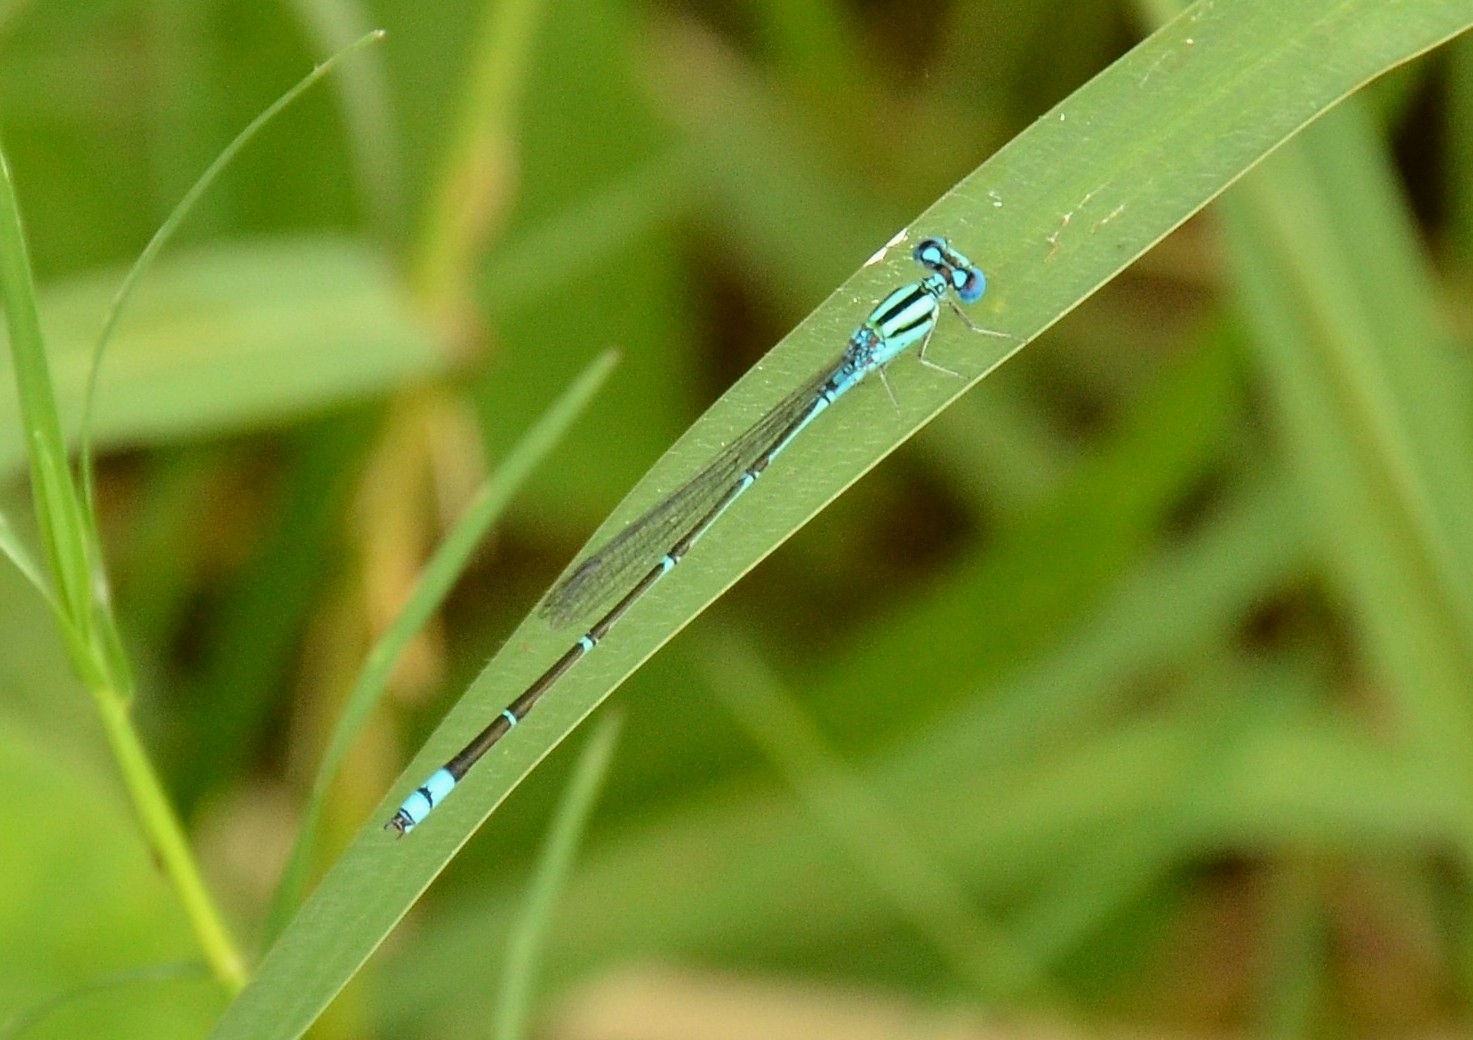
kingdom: Animalia
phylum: Arthropoda
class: Insecta
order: Odonata
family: Coenagrionidae
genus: Pseudagrion
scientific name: Pseudagrion microcephalum
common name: Blue riverdamsel
